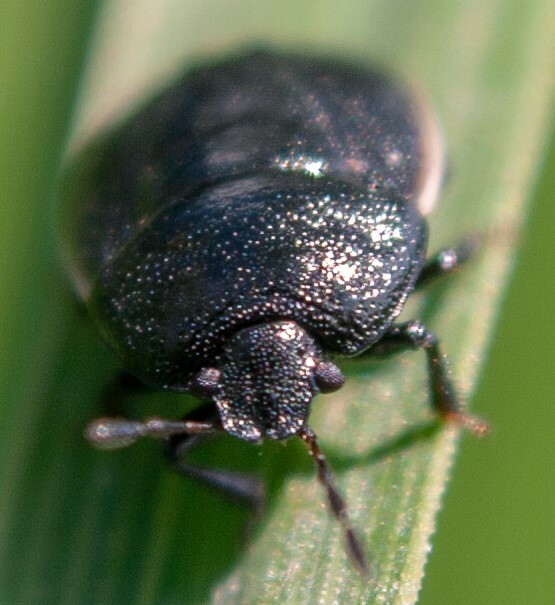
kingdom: Animalia
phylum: Arthropoda
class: Insecta
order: Hemiptera
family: Cydnidae
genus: Legnotus
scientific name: Legnotus limbosus
